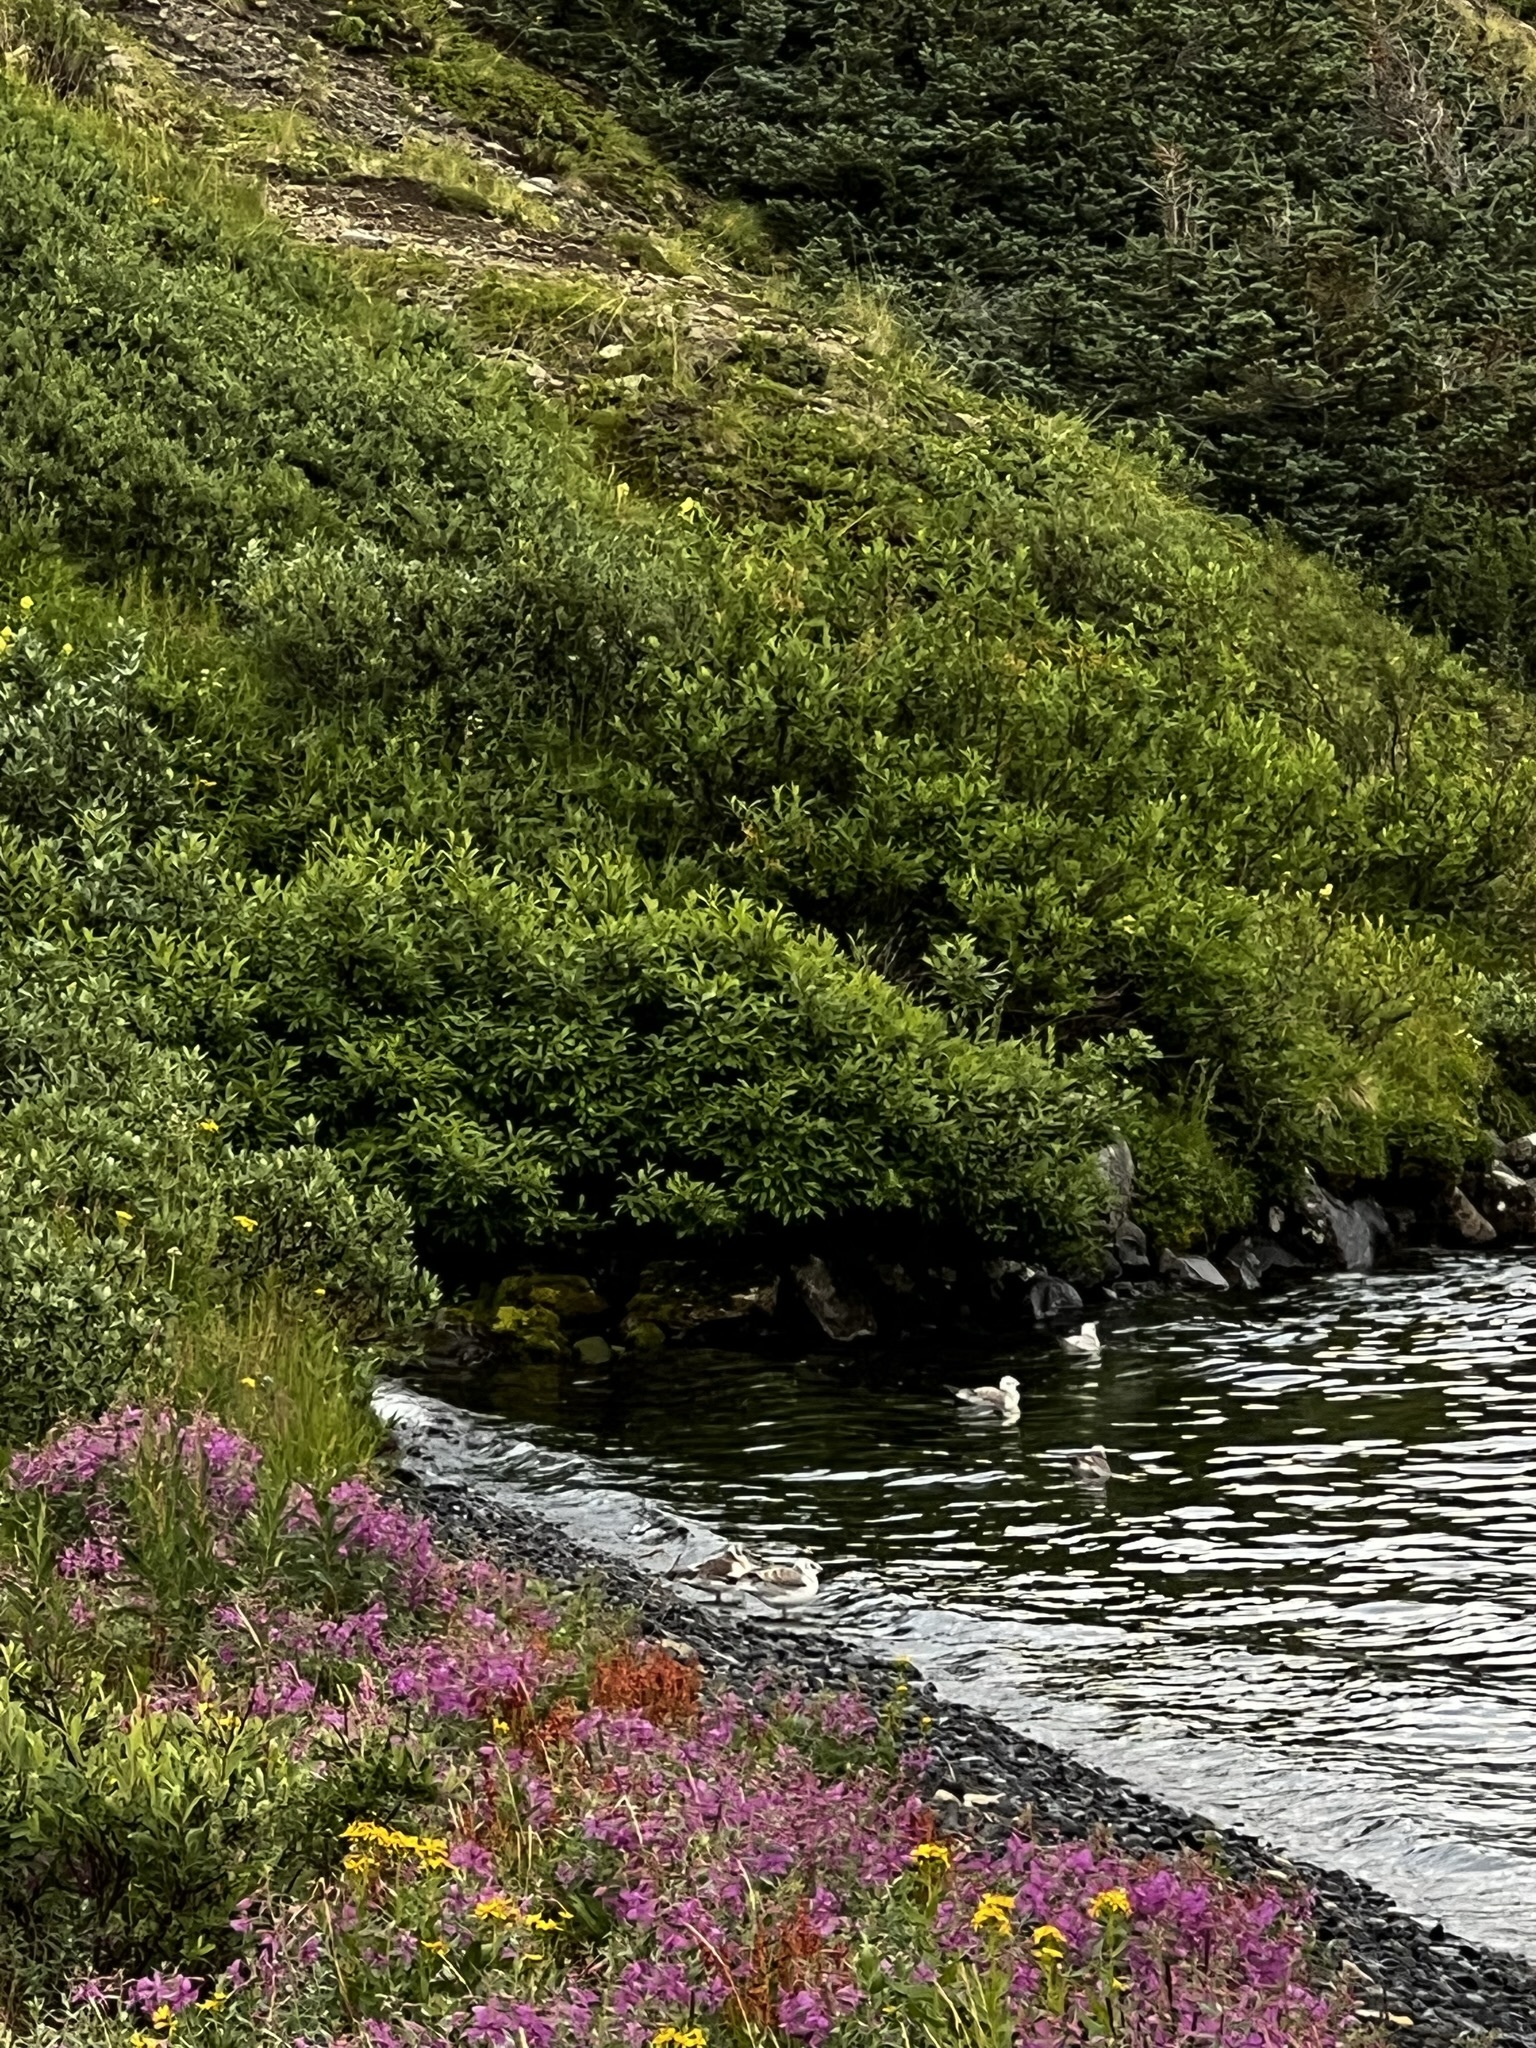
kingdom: Animalia
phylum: Chordata
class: Aves
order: Charadriiformes
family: Laridae
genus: Chroicocephalus
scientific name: Chroicocephalus philadelphia
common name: Bonaparte's gull
